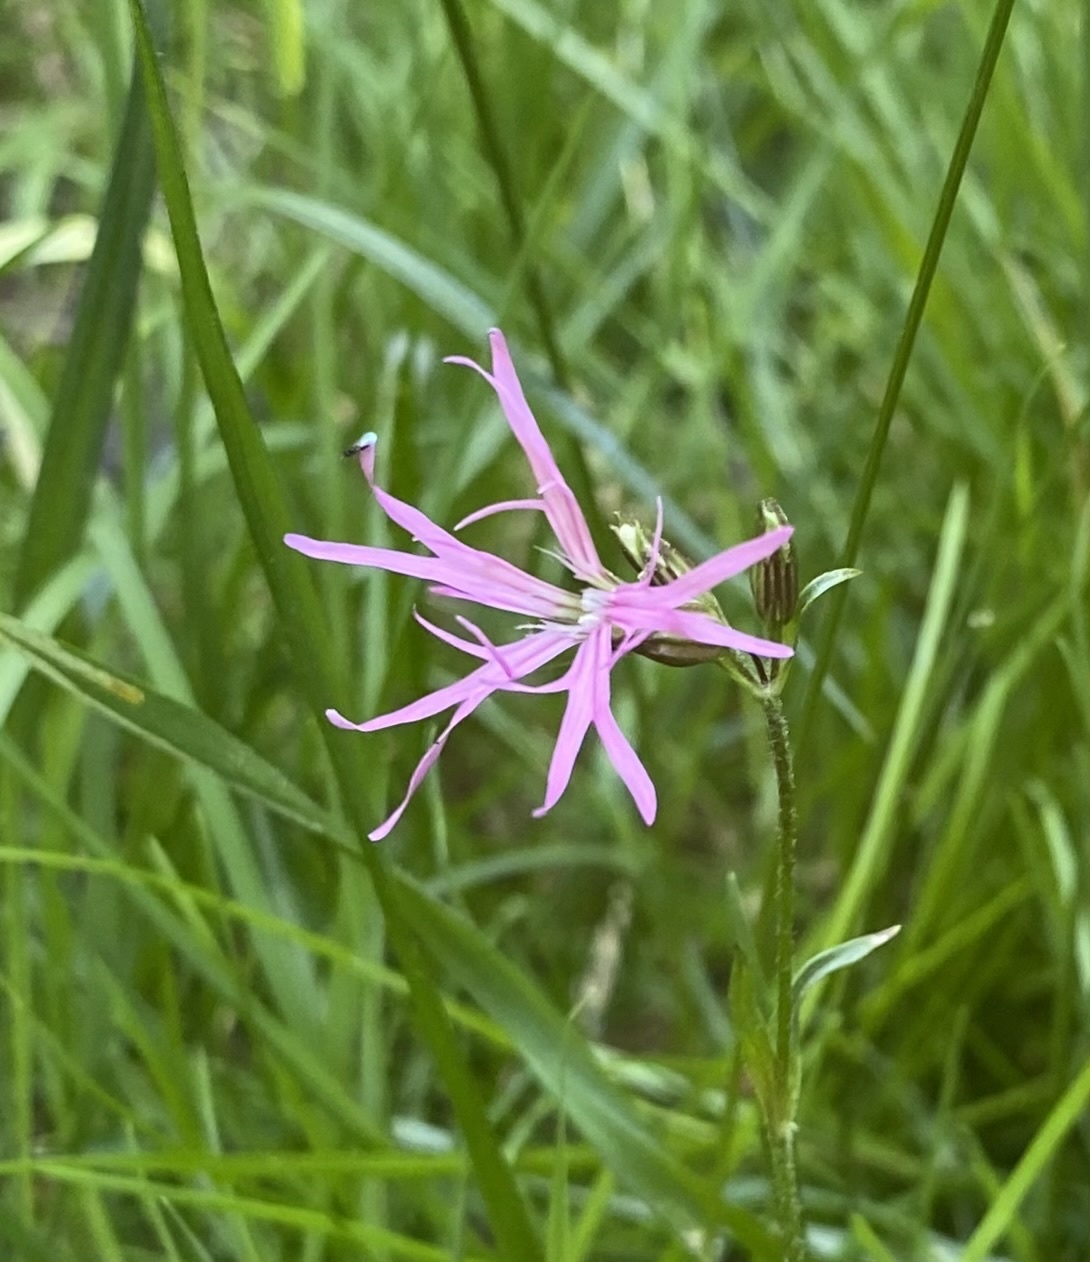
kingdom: Plantae
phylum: Tracheophyta
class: Magnoliopsida
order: Caryophyllales
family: Caryophyllaceae
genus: Silene
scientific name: Silene flos-cuculi
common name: Ragged-robin
